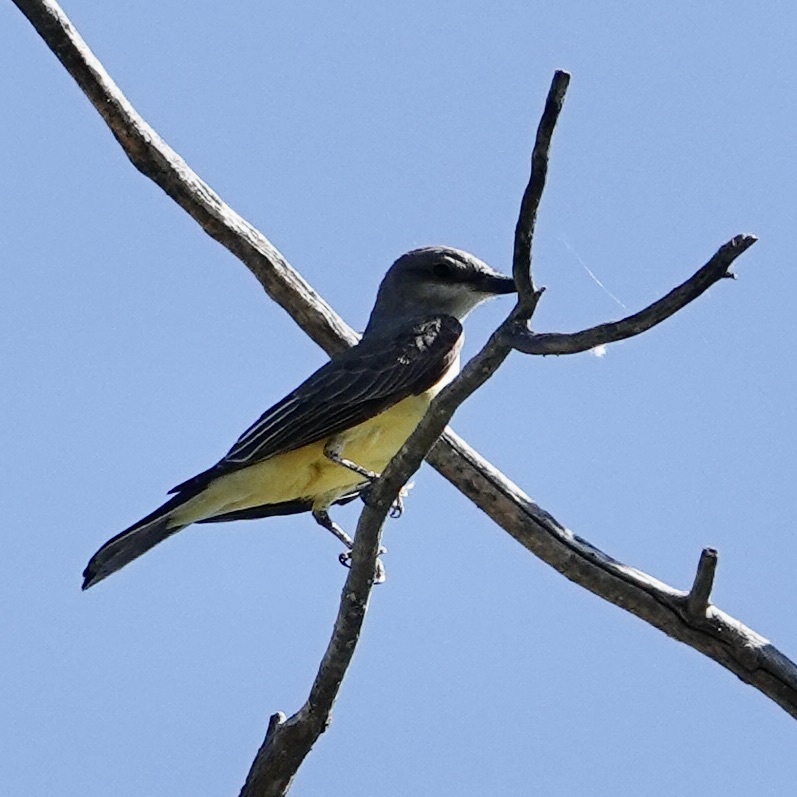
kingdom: Animalia
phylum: Chordata
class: Aves
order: Passeriformes
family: Tyrannidae
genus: Tyrannus
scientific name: Tyrannus verticalis
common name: Western kingbird
